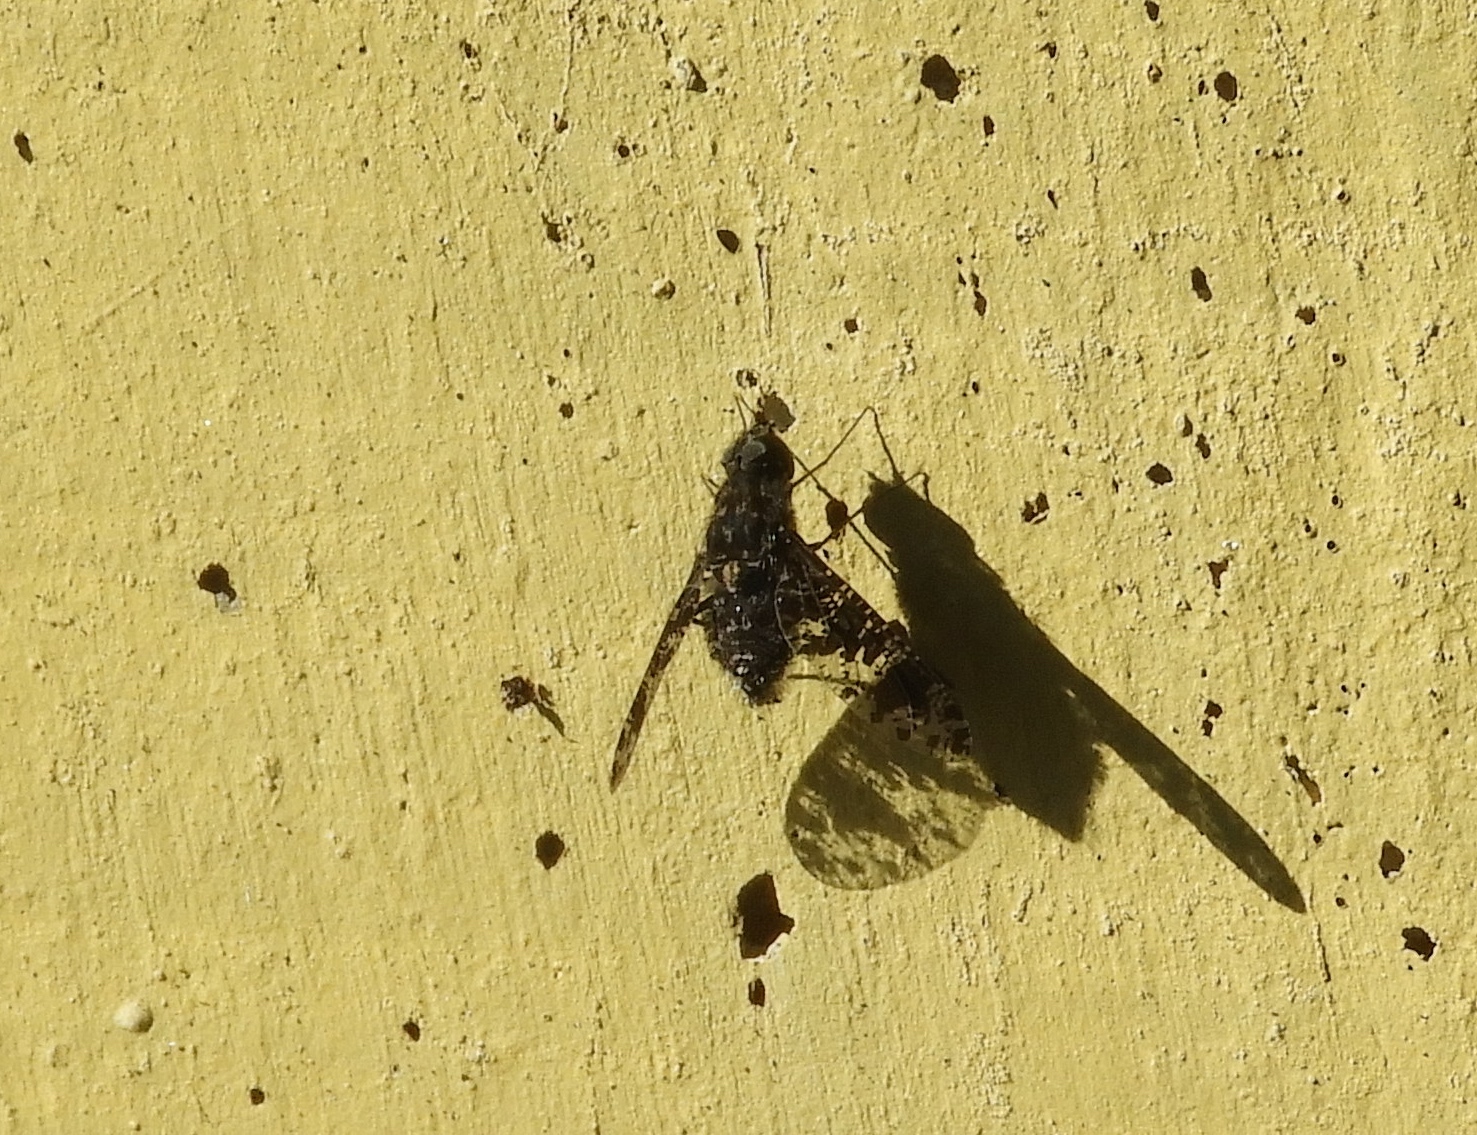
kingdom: Animalia
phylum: Arthropoda
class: Insecta
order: Diptera
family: Bombyliidae
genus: Anthrax
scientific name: Anthrax
